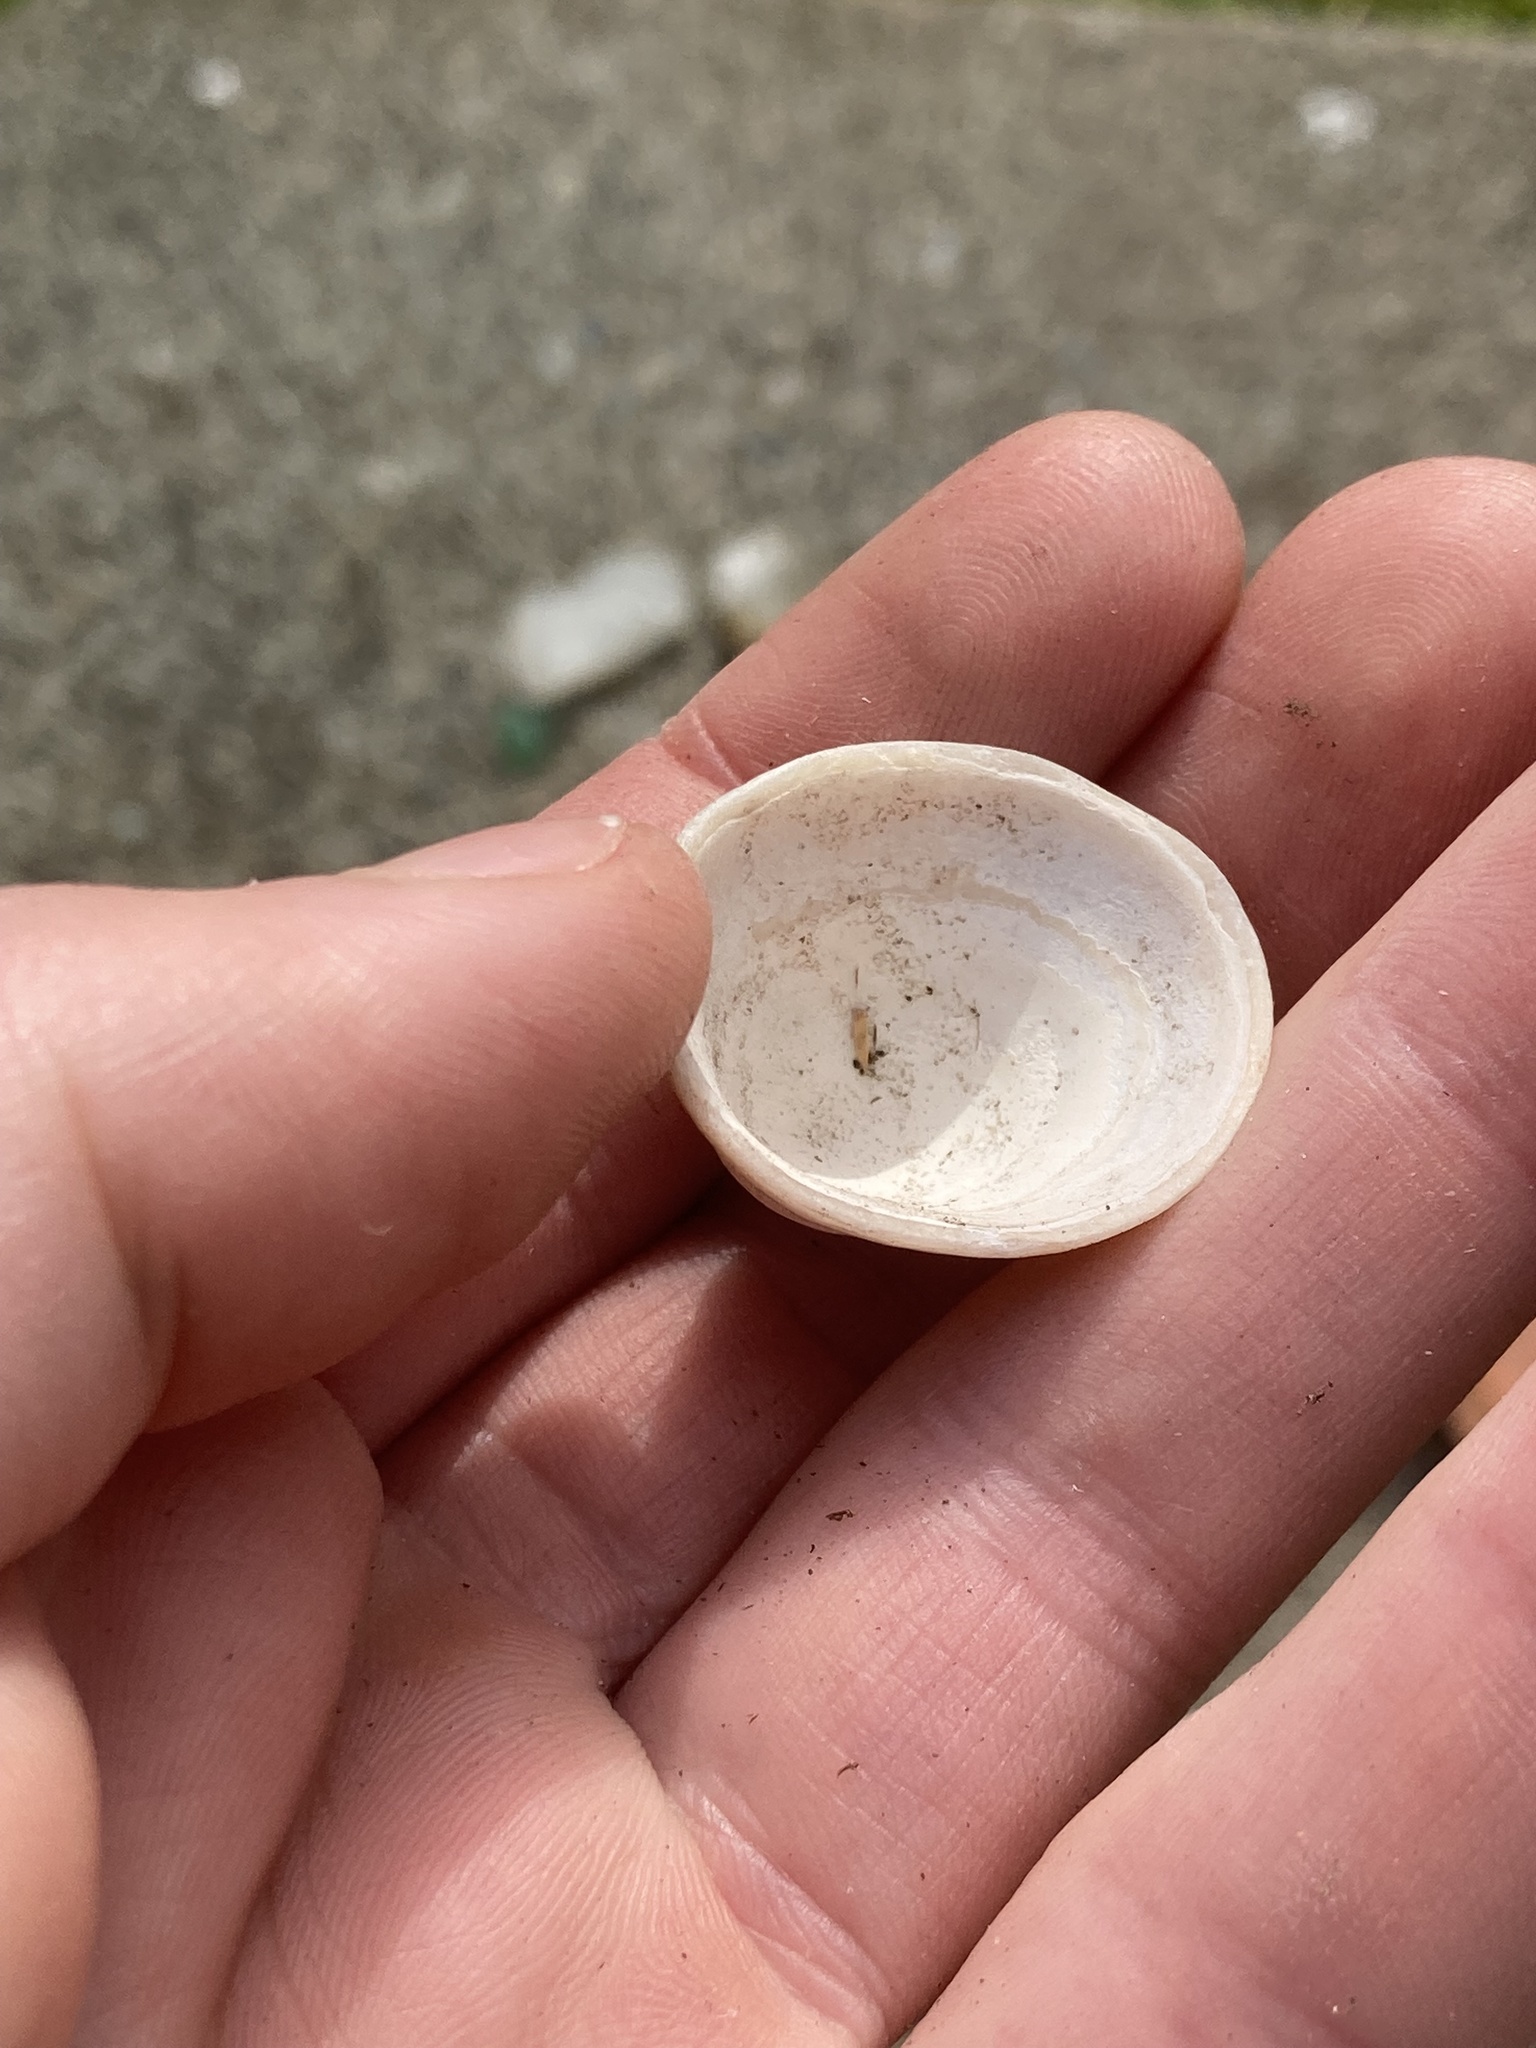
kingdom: Animalia
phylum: Mollusca
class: Gastropoda
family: Acmaeidae
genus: Acmaea
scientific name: Acmaea mitra
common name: Pacific white cap limpet
